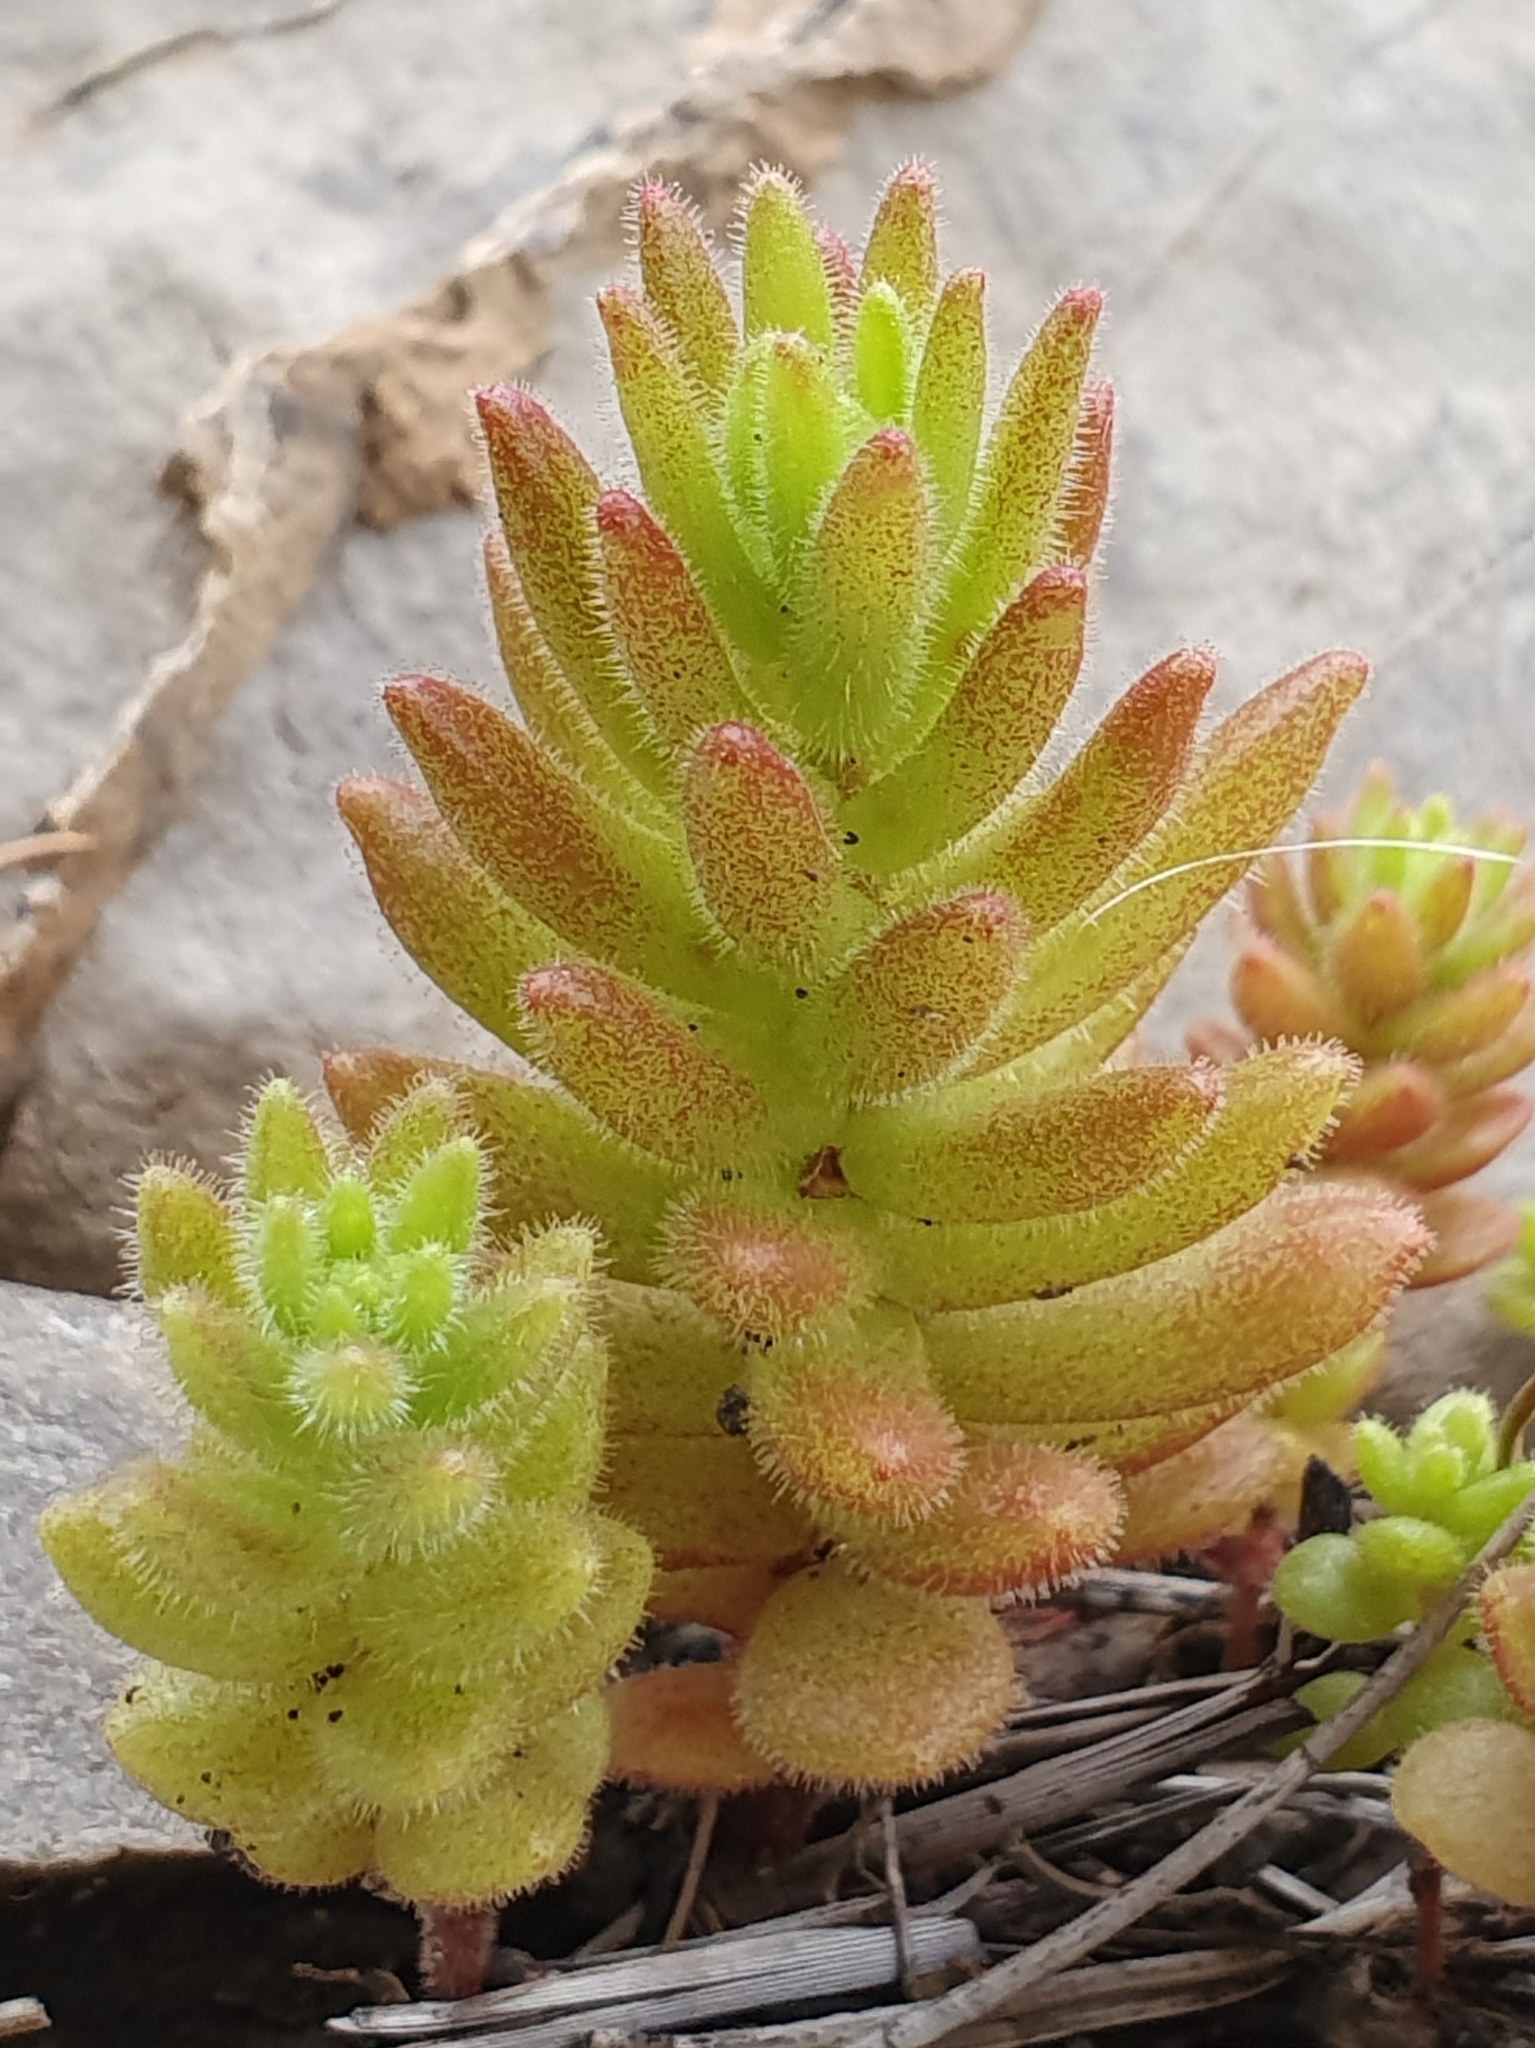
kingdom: Plantae
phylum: Tracheophyta
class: Magnoliopsida
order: Saxifragales
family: Crassulaceae
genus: Sedum
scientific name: Sedum pubescens
